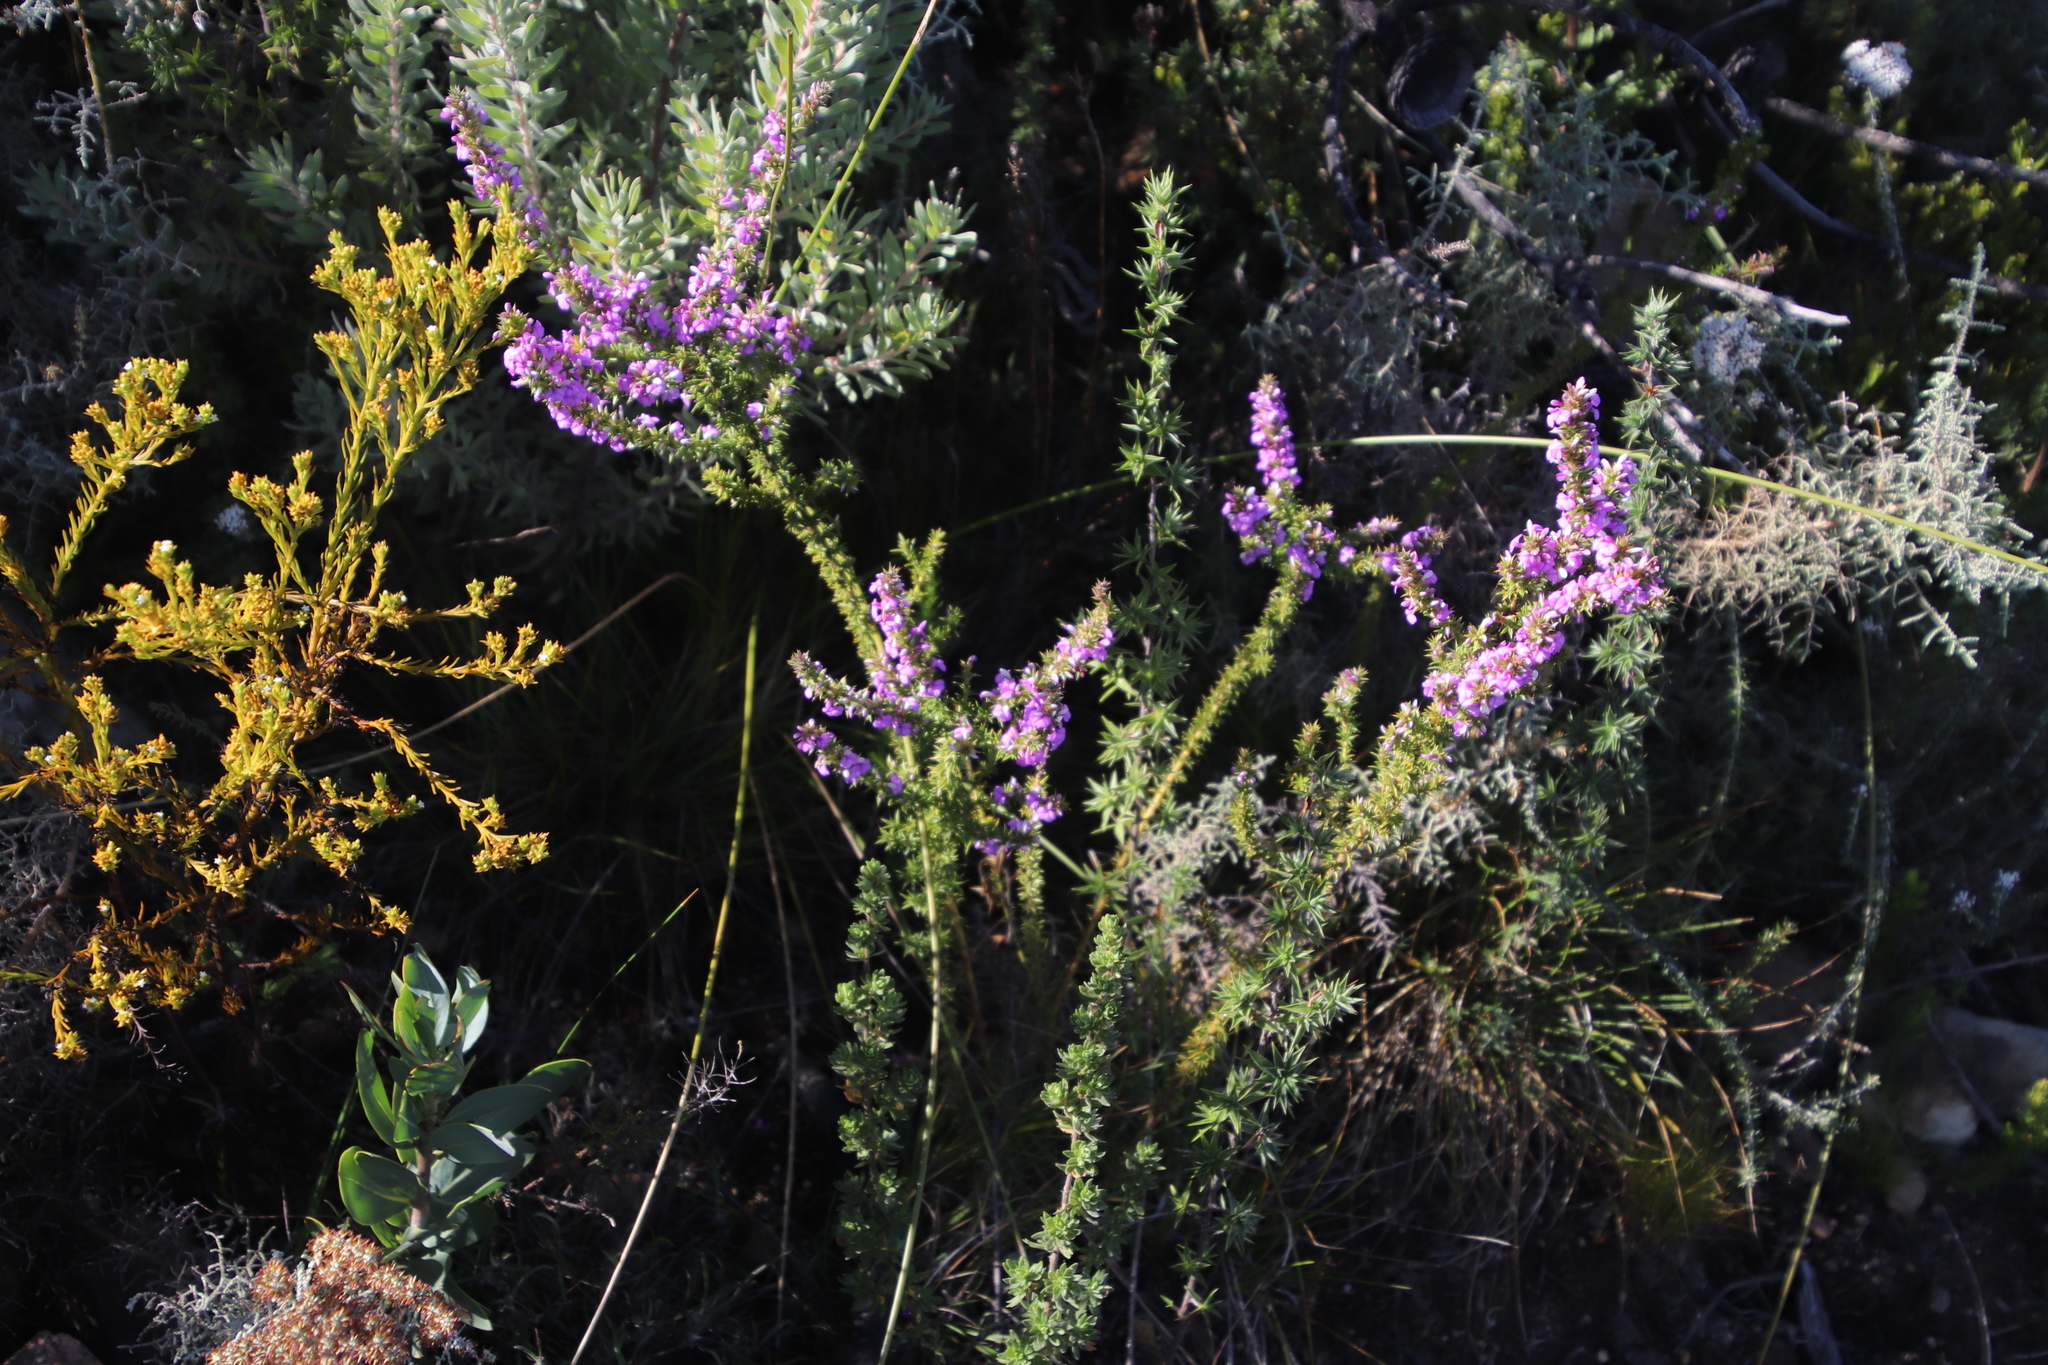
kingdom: Plantae
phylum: Tracheophyta
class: Magnoliopsida
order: Fabales
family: Polygalaceae
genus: Muraltia
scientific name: Muraltia heisteria
